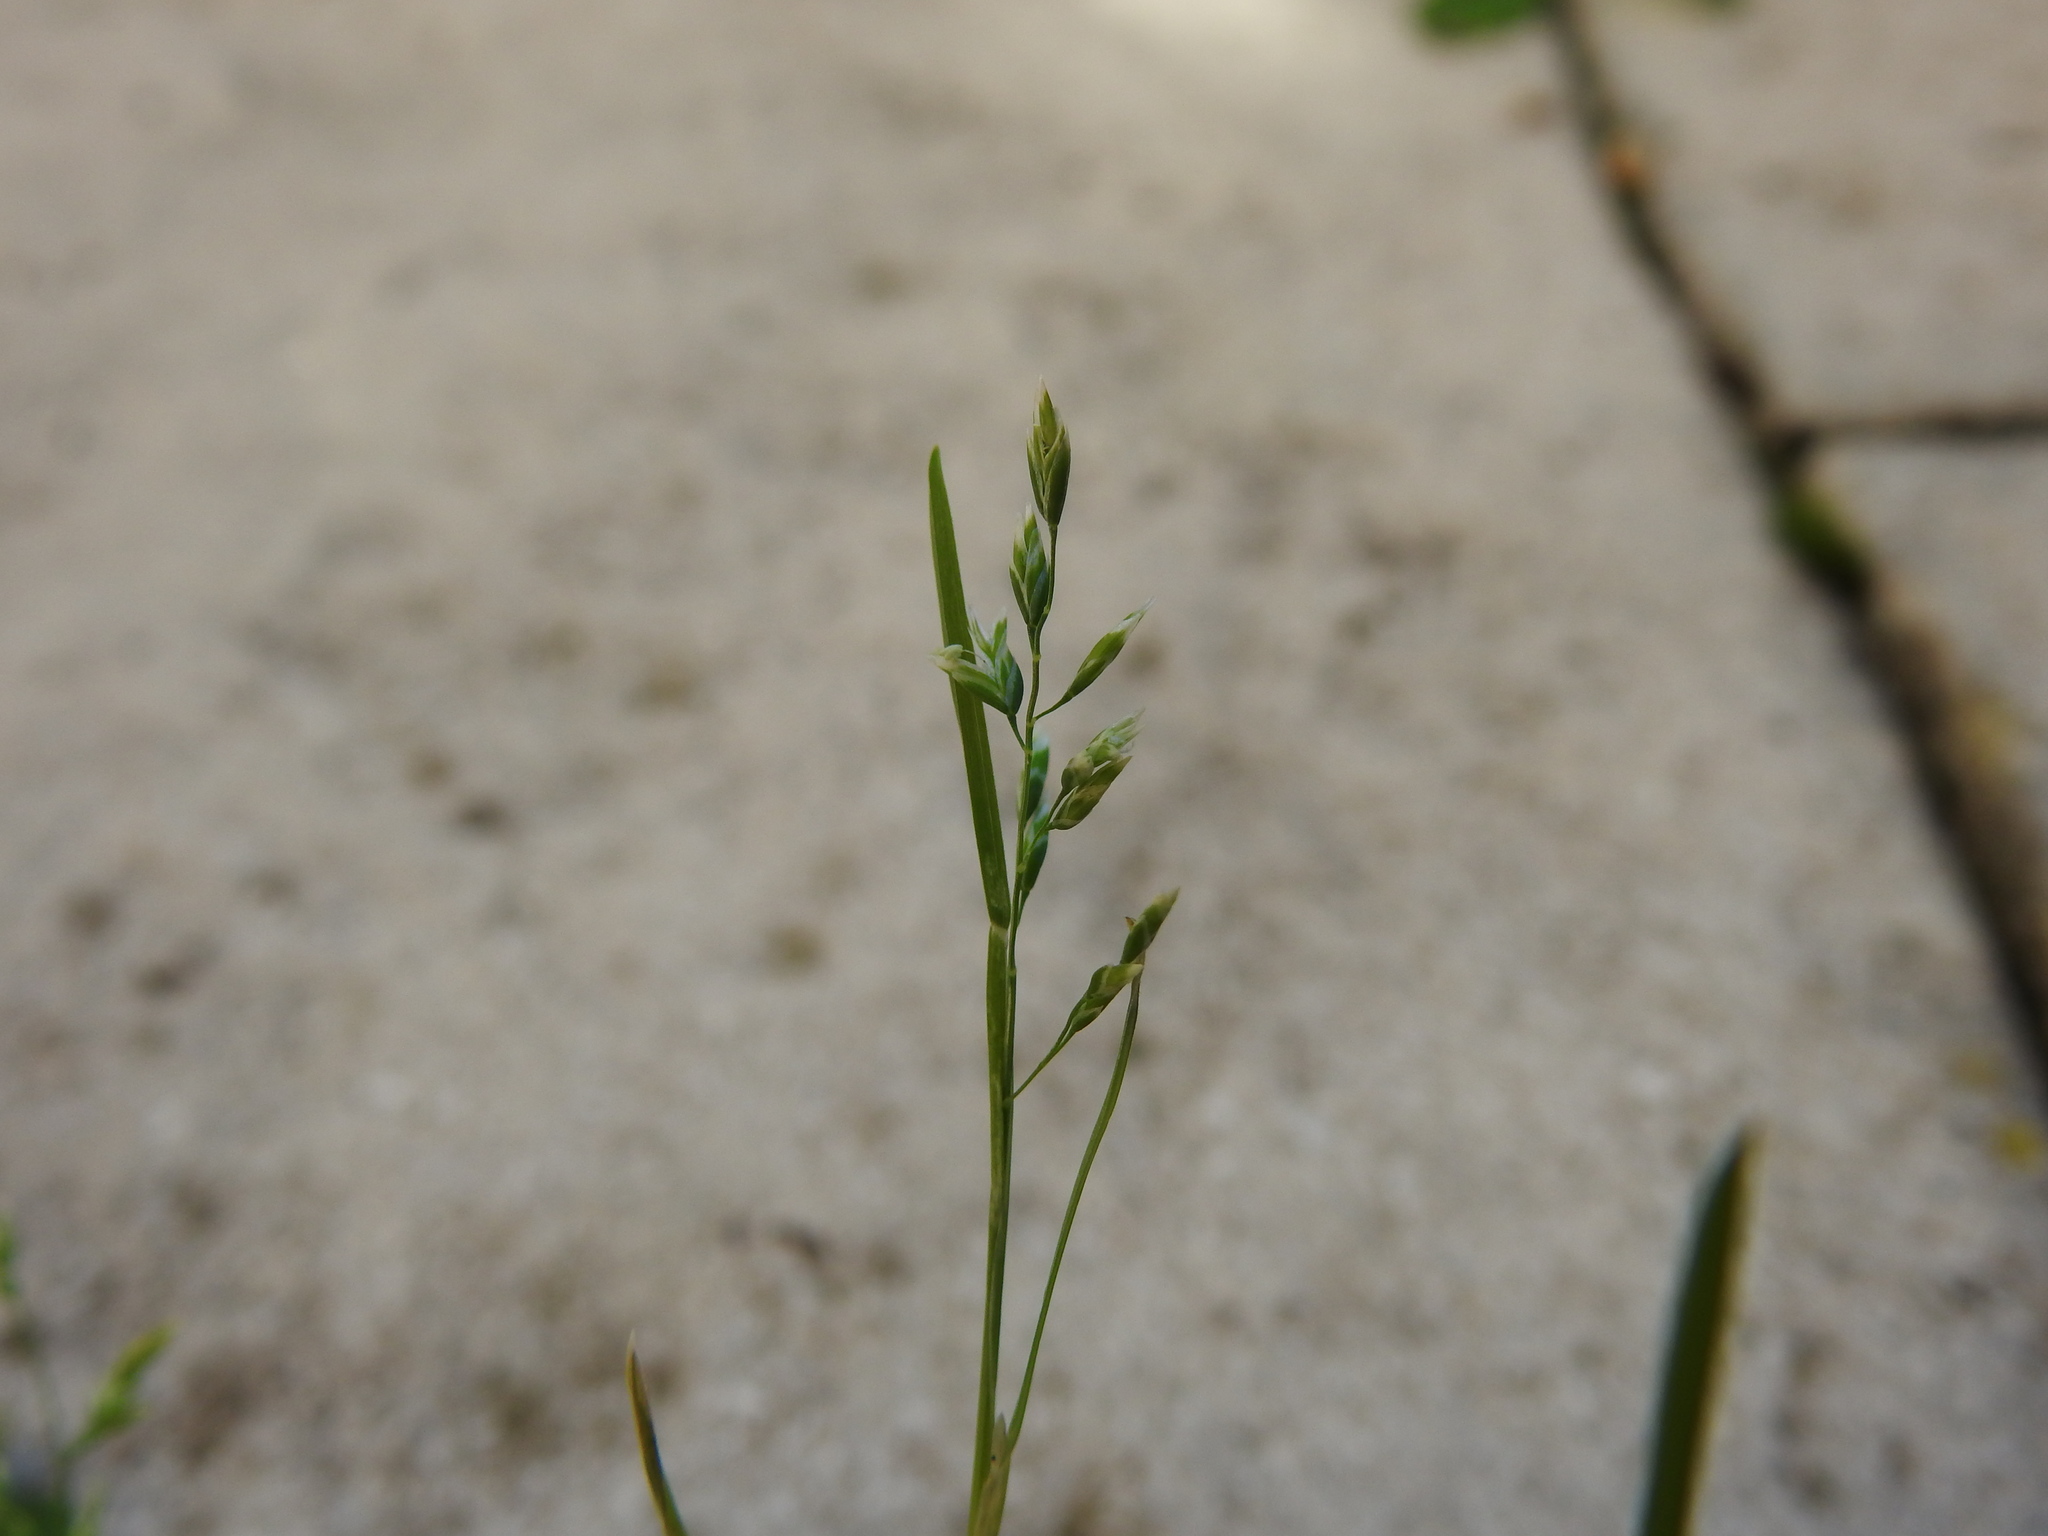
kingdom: Plantae
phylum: Tracheophyta
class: Liliopsida
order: Poales
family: Poaceae
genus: Poa
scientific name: Poa annua
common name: Annual bluegrass
